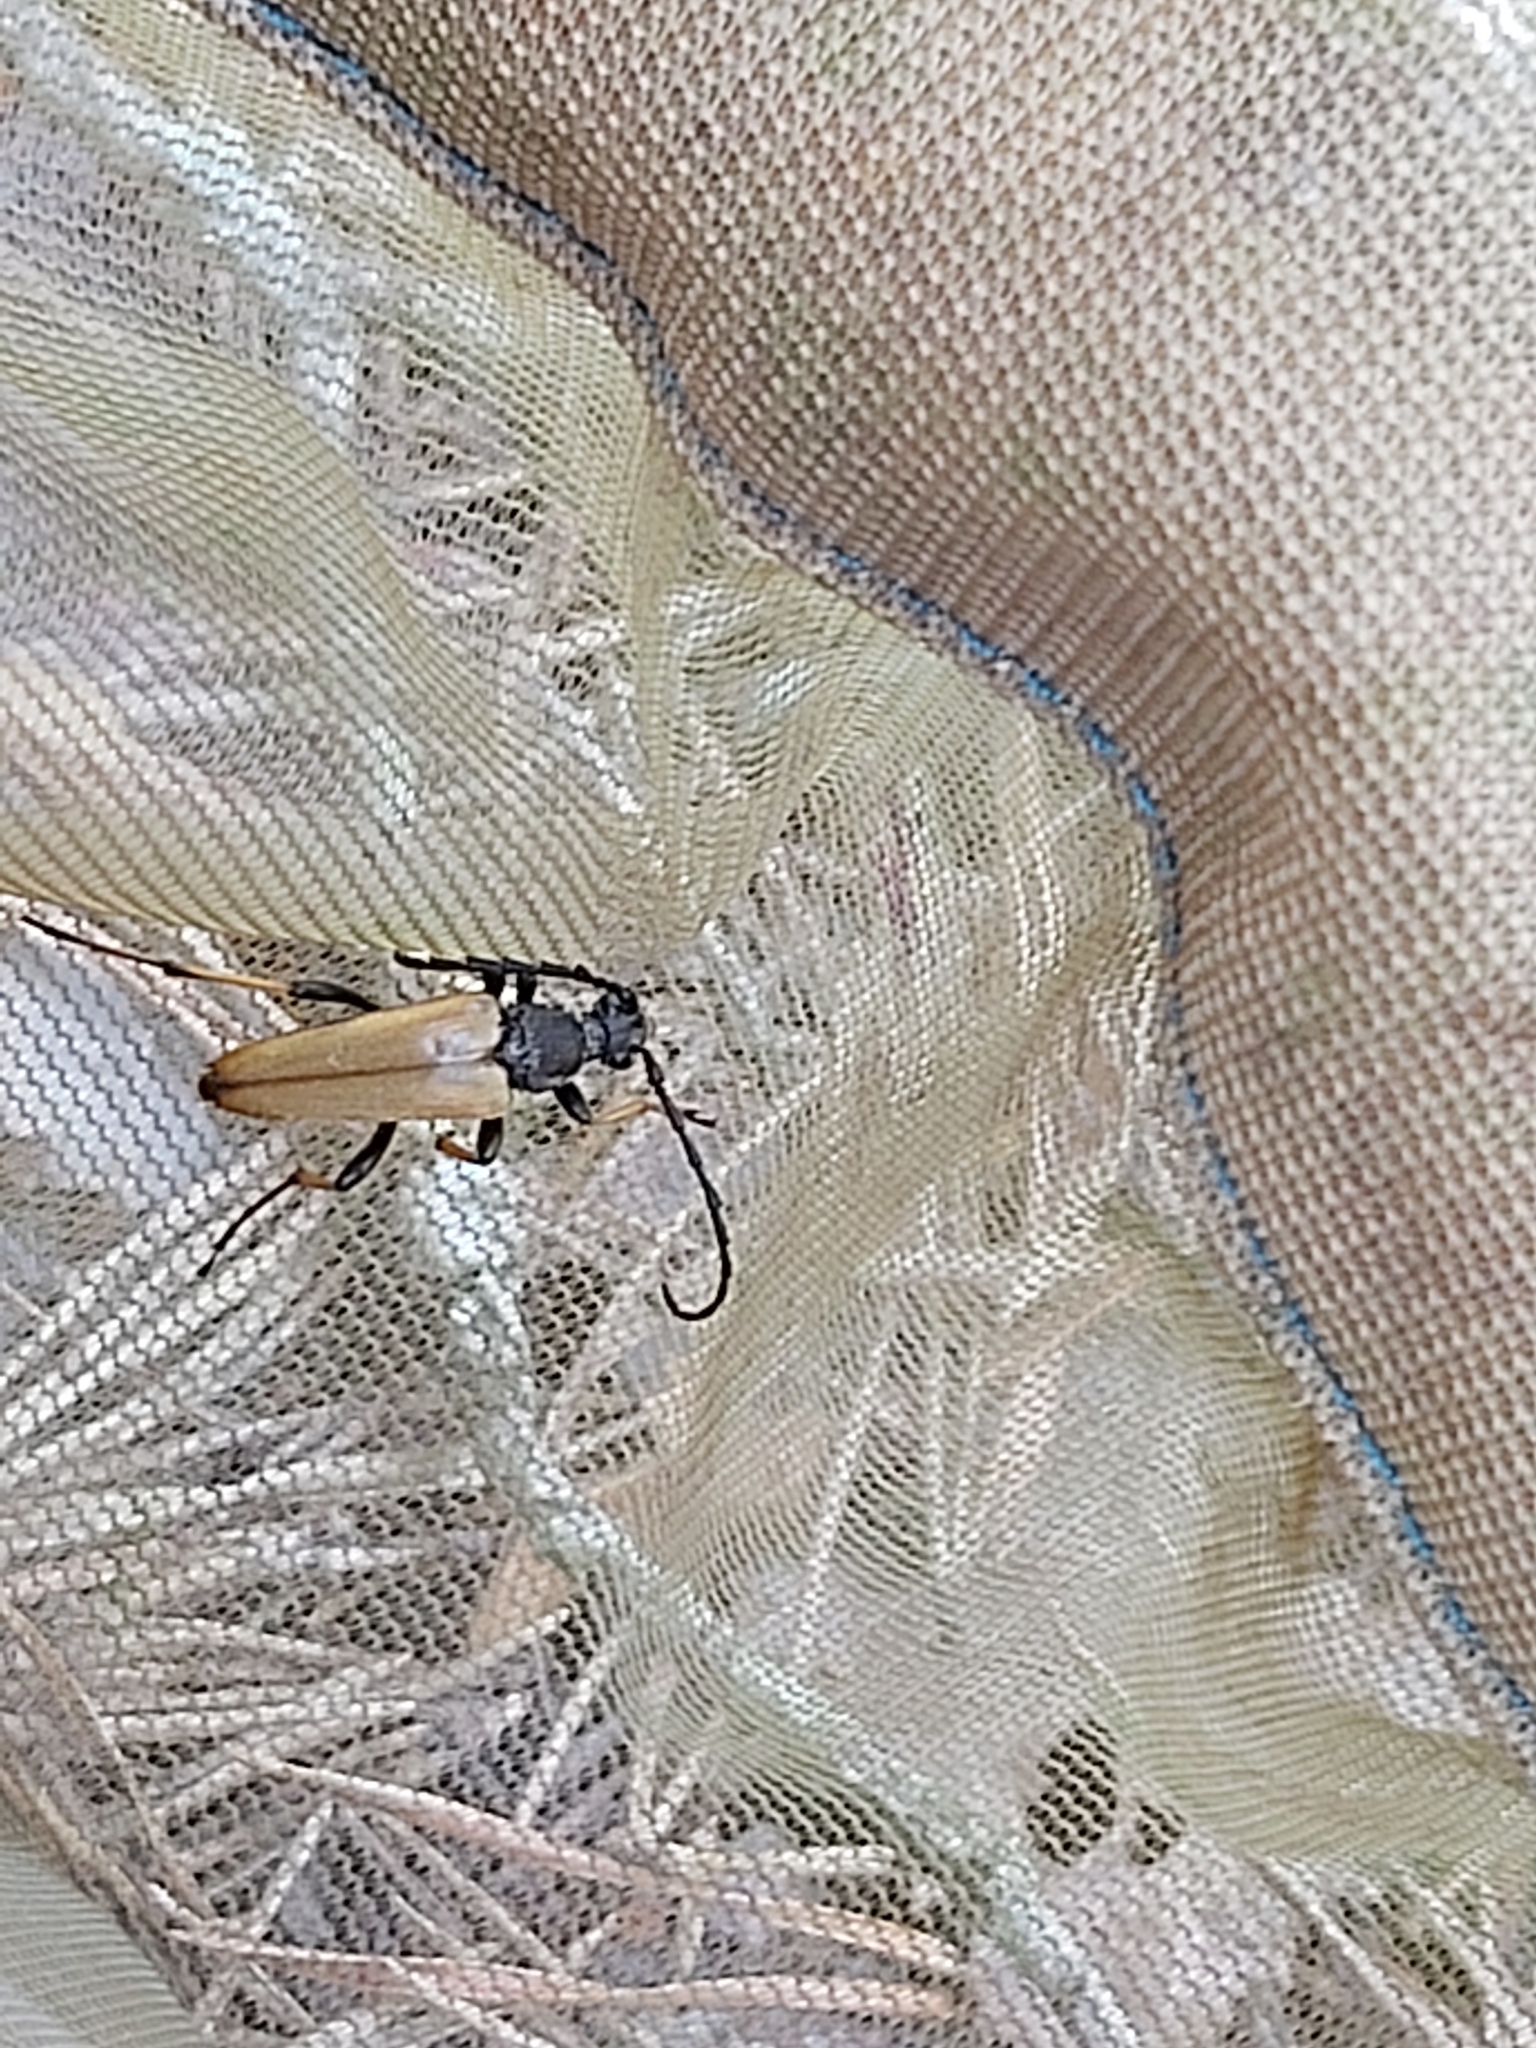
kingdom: Animalia
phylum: Arthropoda
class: Insecta
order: Coleoptera
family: Cerambycidae
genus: Stictoleptura
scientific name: Stictoleptura rubra
